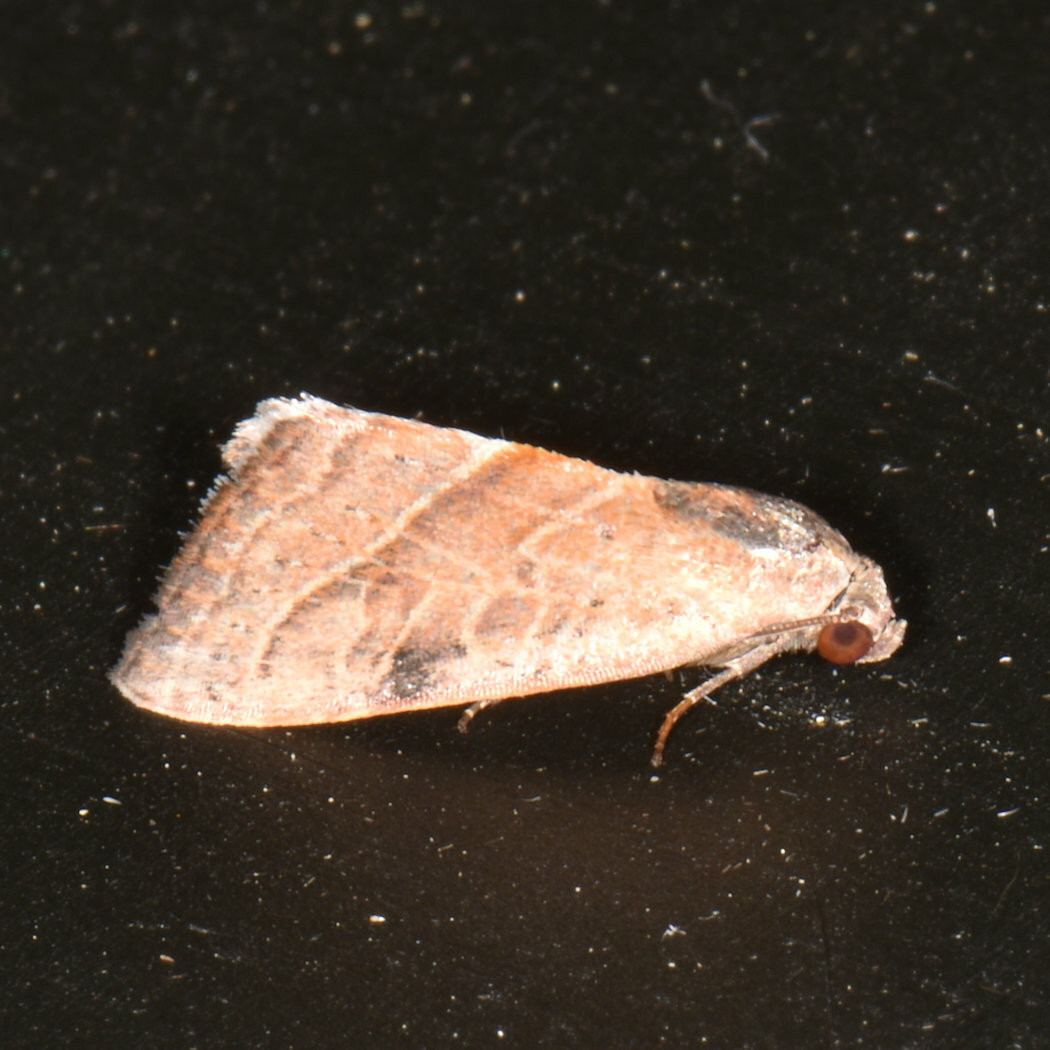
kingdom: Animalia
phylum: Arthropoda
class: Insecta
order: Lepidoptera
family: Noctuidae
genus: Galgula
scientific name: Galgula partita
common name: Wedgeling
